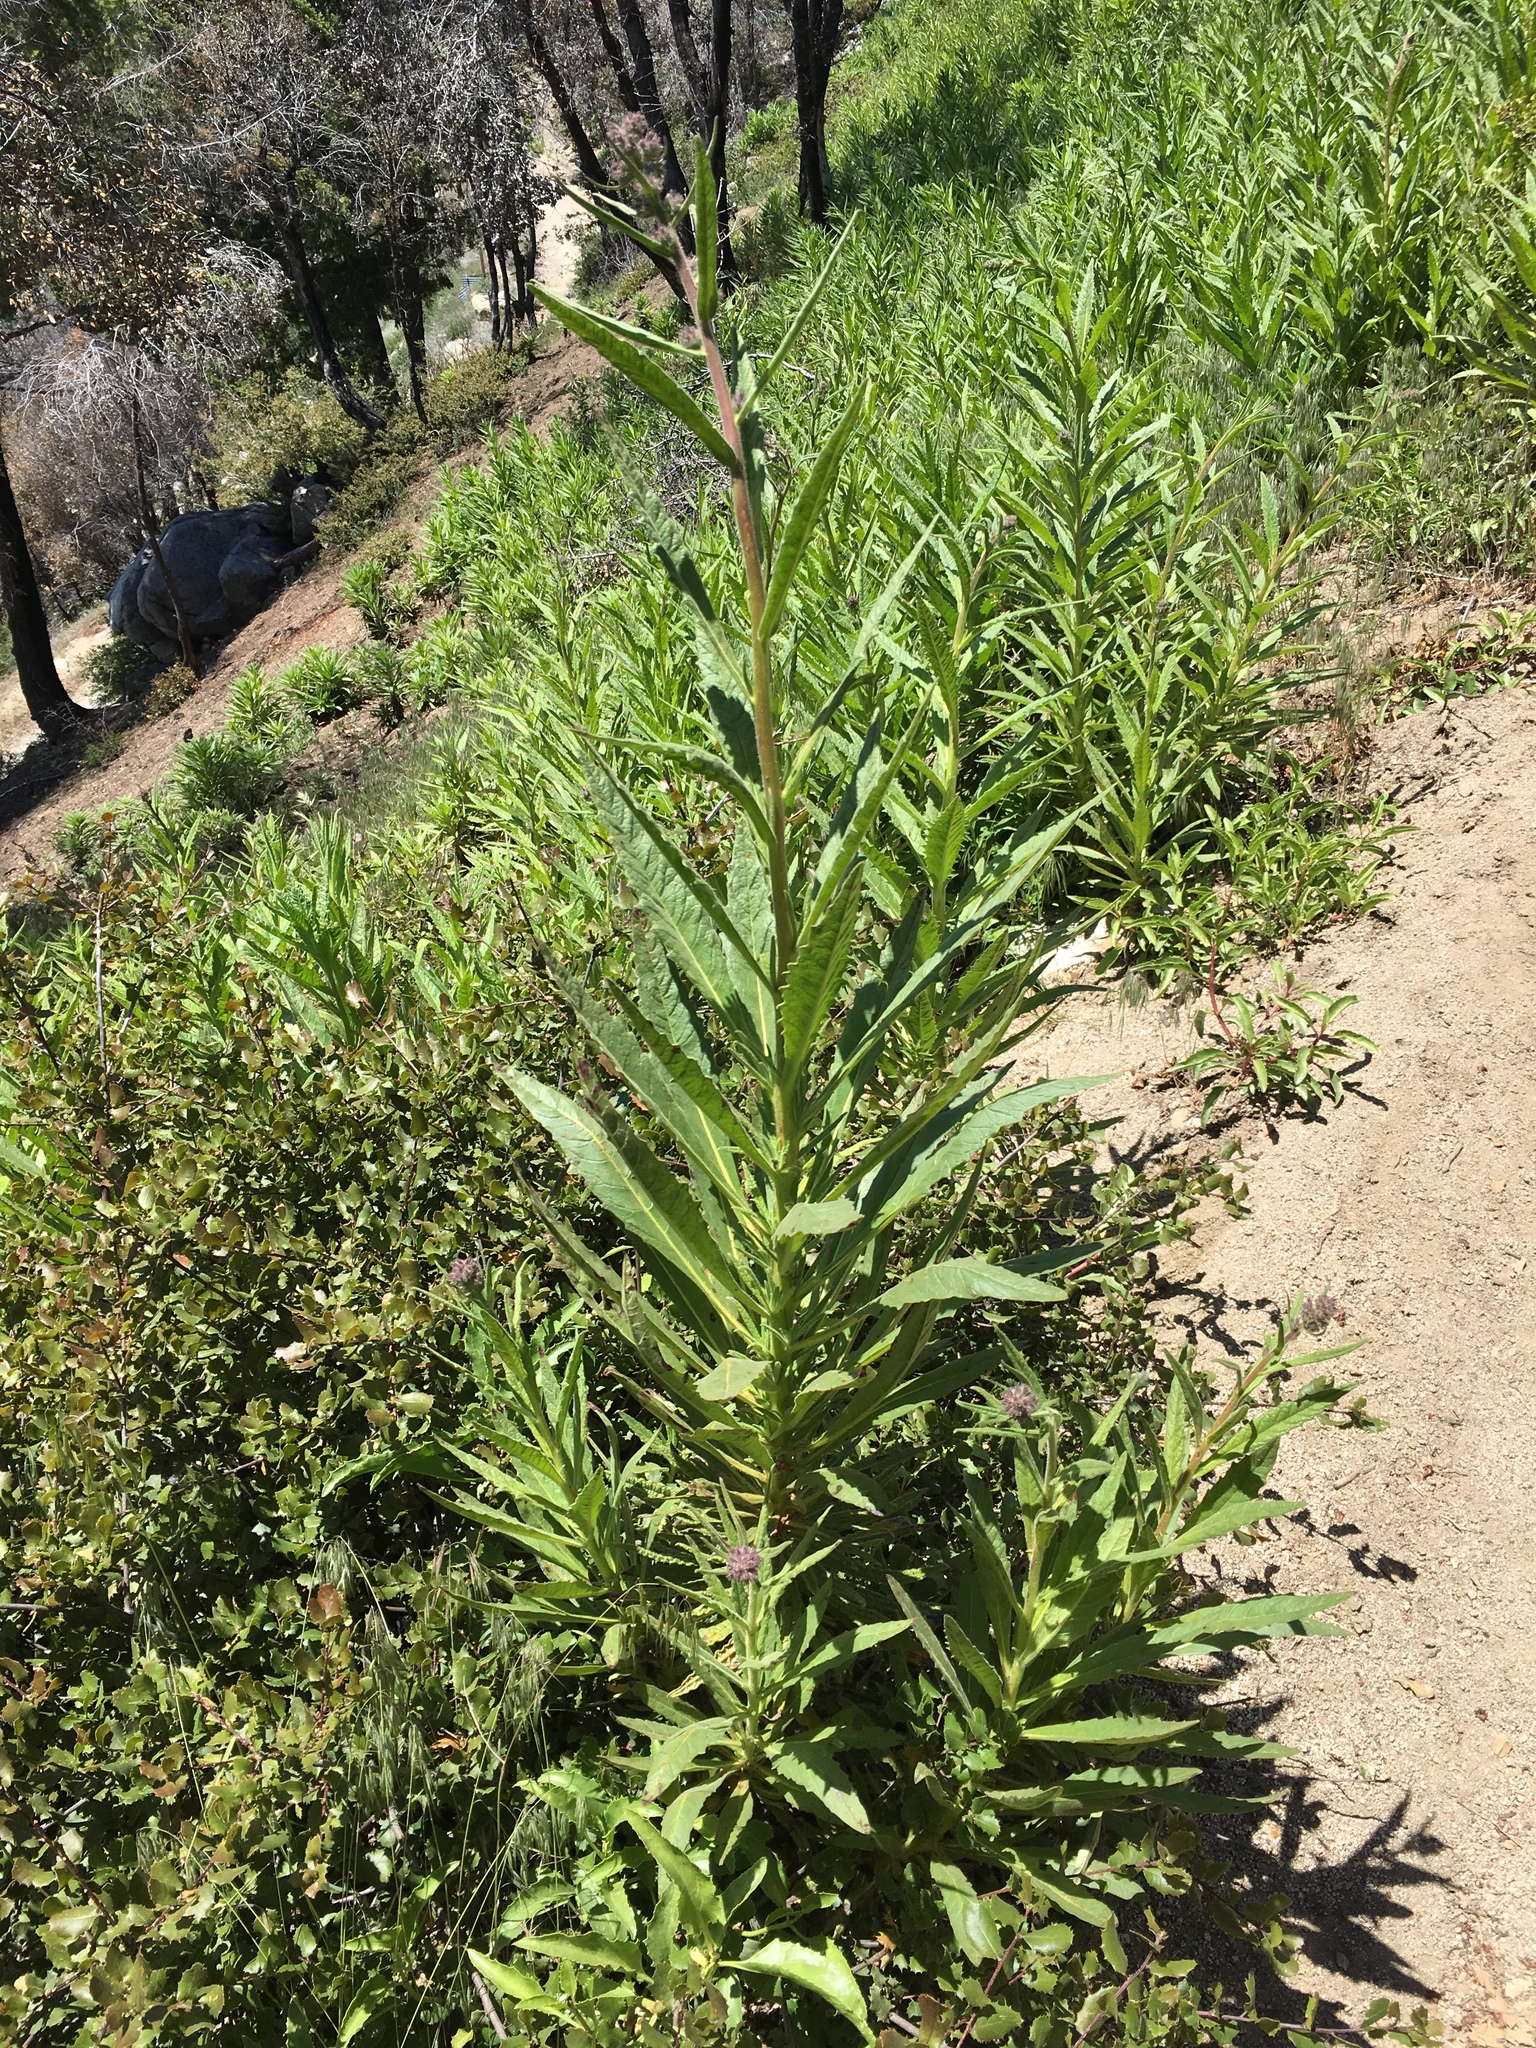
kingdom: Plantae
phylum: Tracheophyta
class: Magnoliopsida
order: Boraginales
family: Namaceae
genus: Turricula
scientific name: Turricula parryi
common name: Poodle-dog-bush
